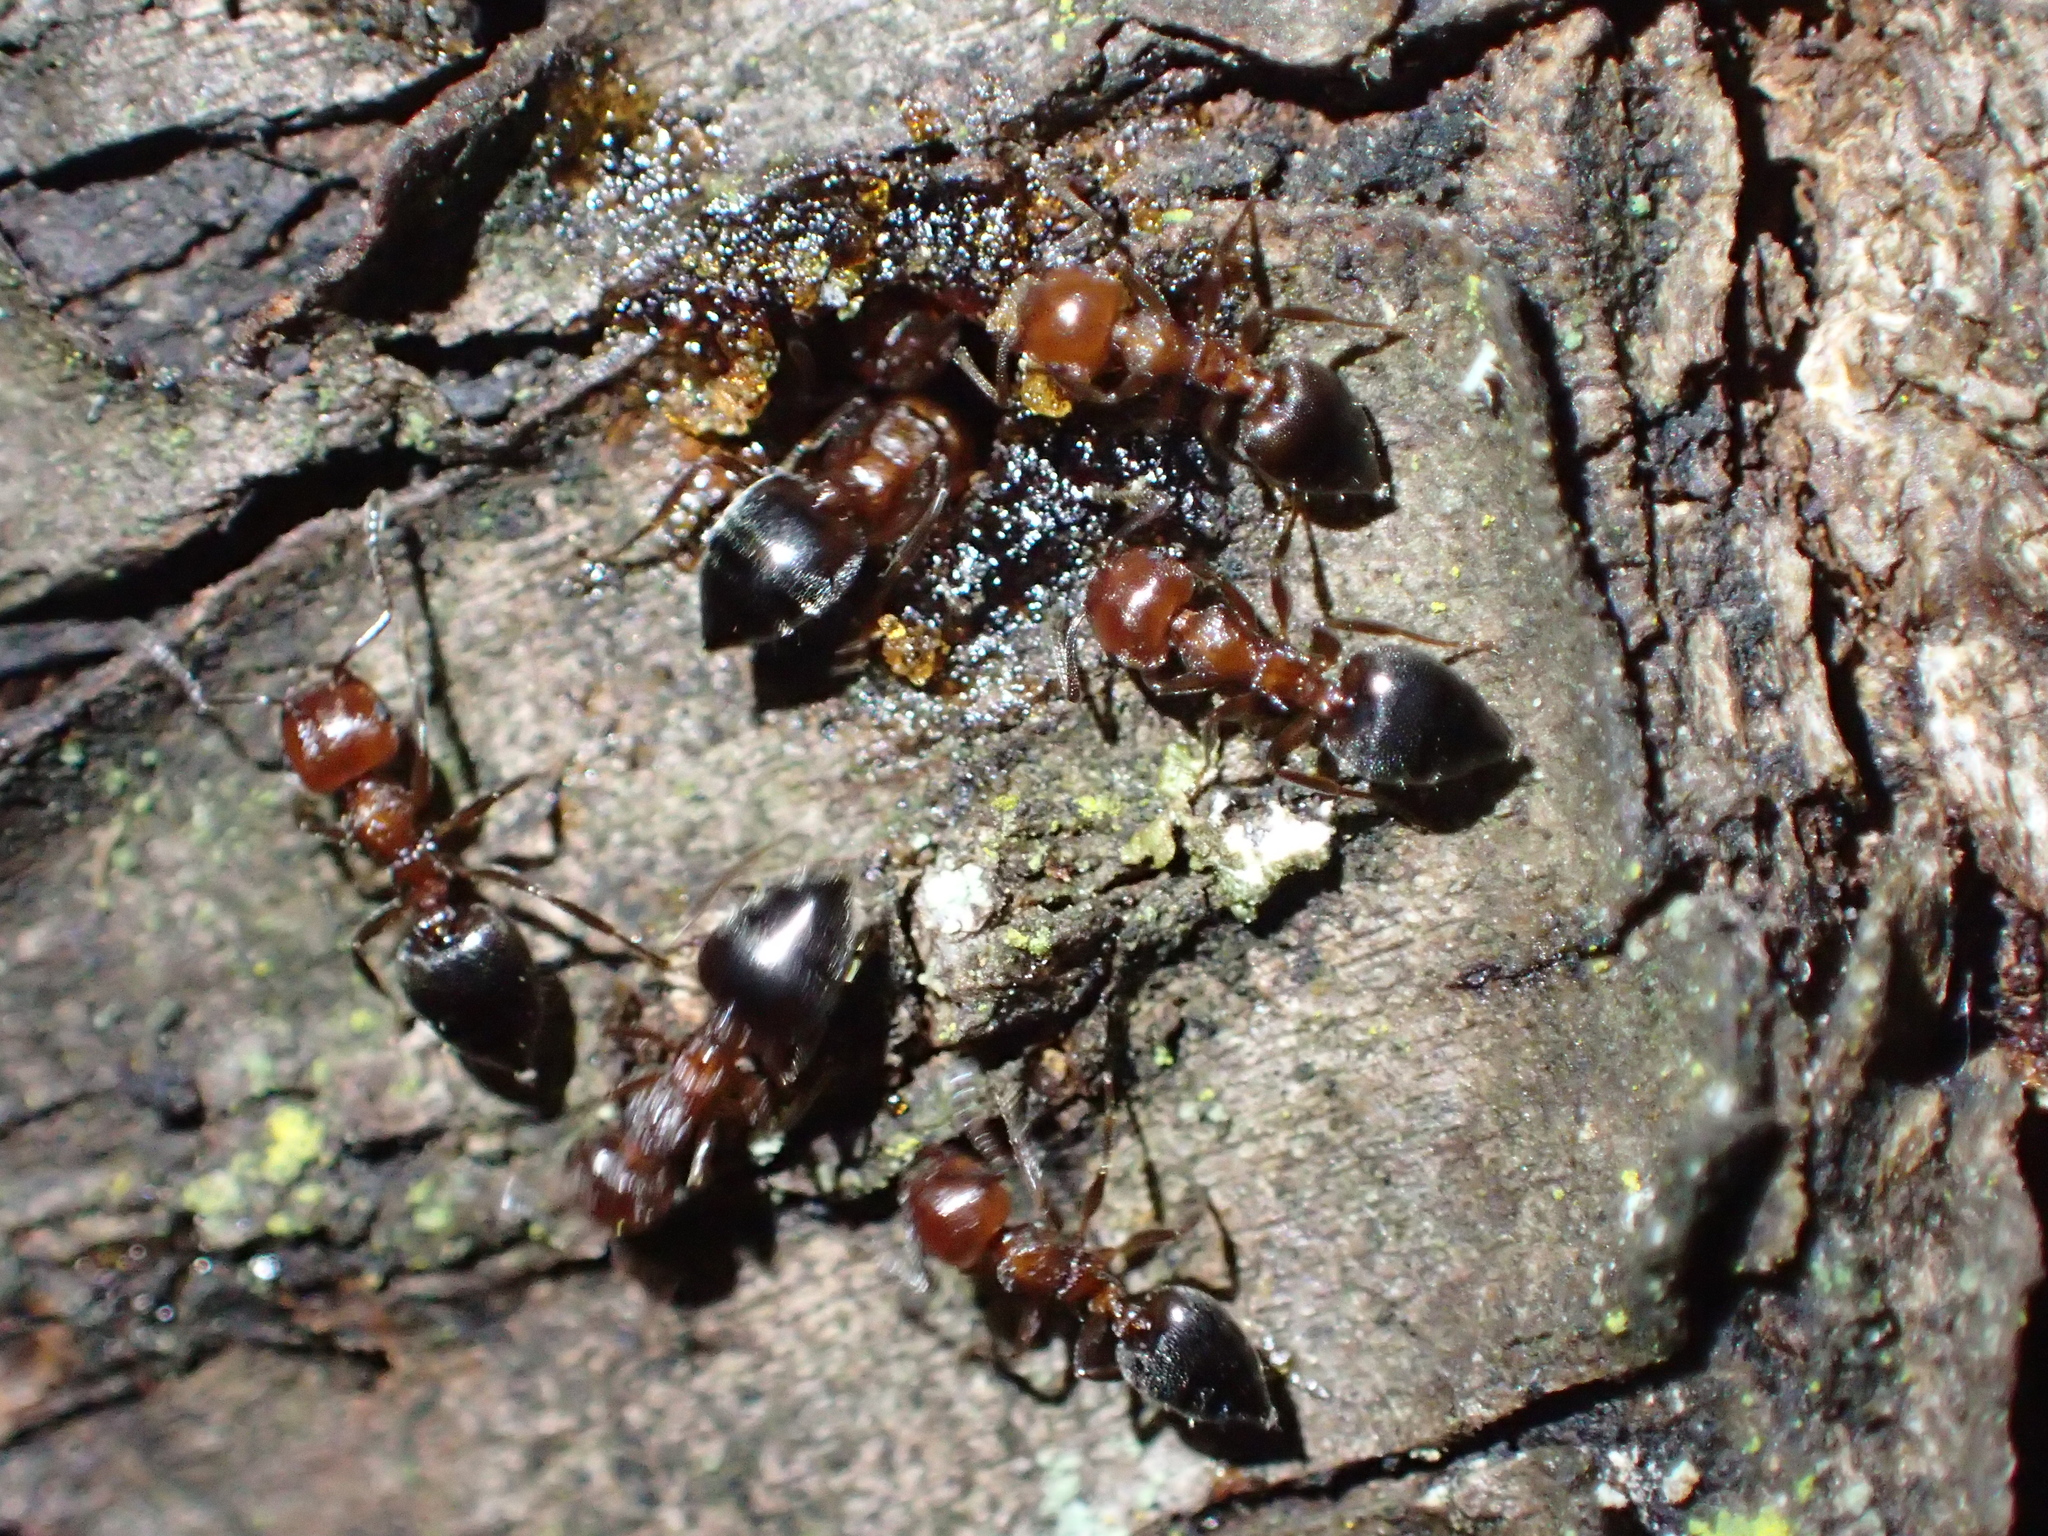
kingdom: Animalia
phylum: Arthropoda
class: Insecta
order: Hymenoptera
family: Formicidae
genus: Crematogaster
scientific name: Crematogaster schmidti
